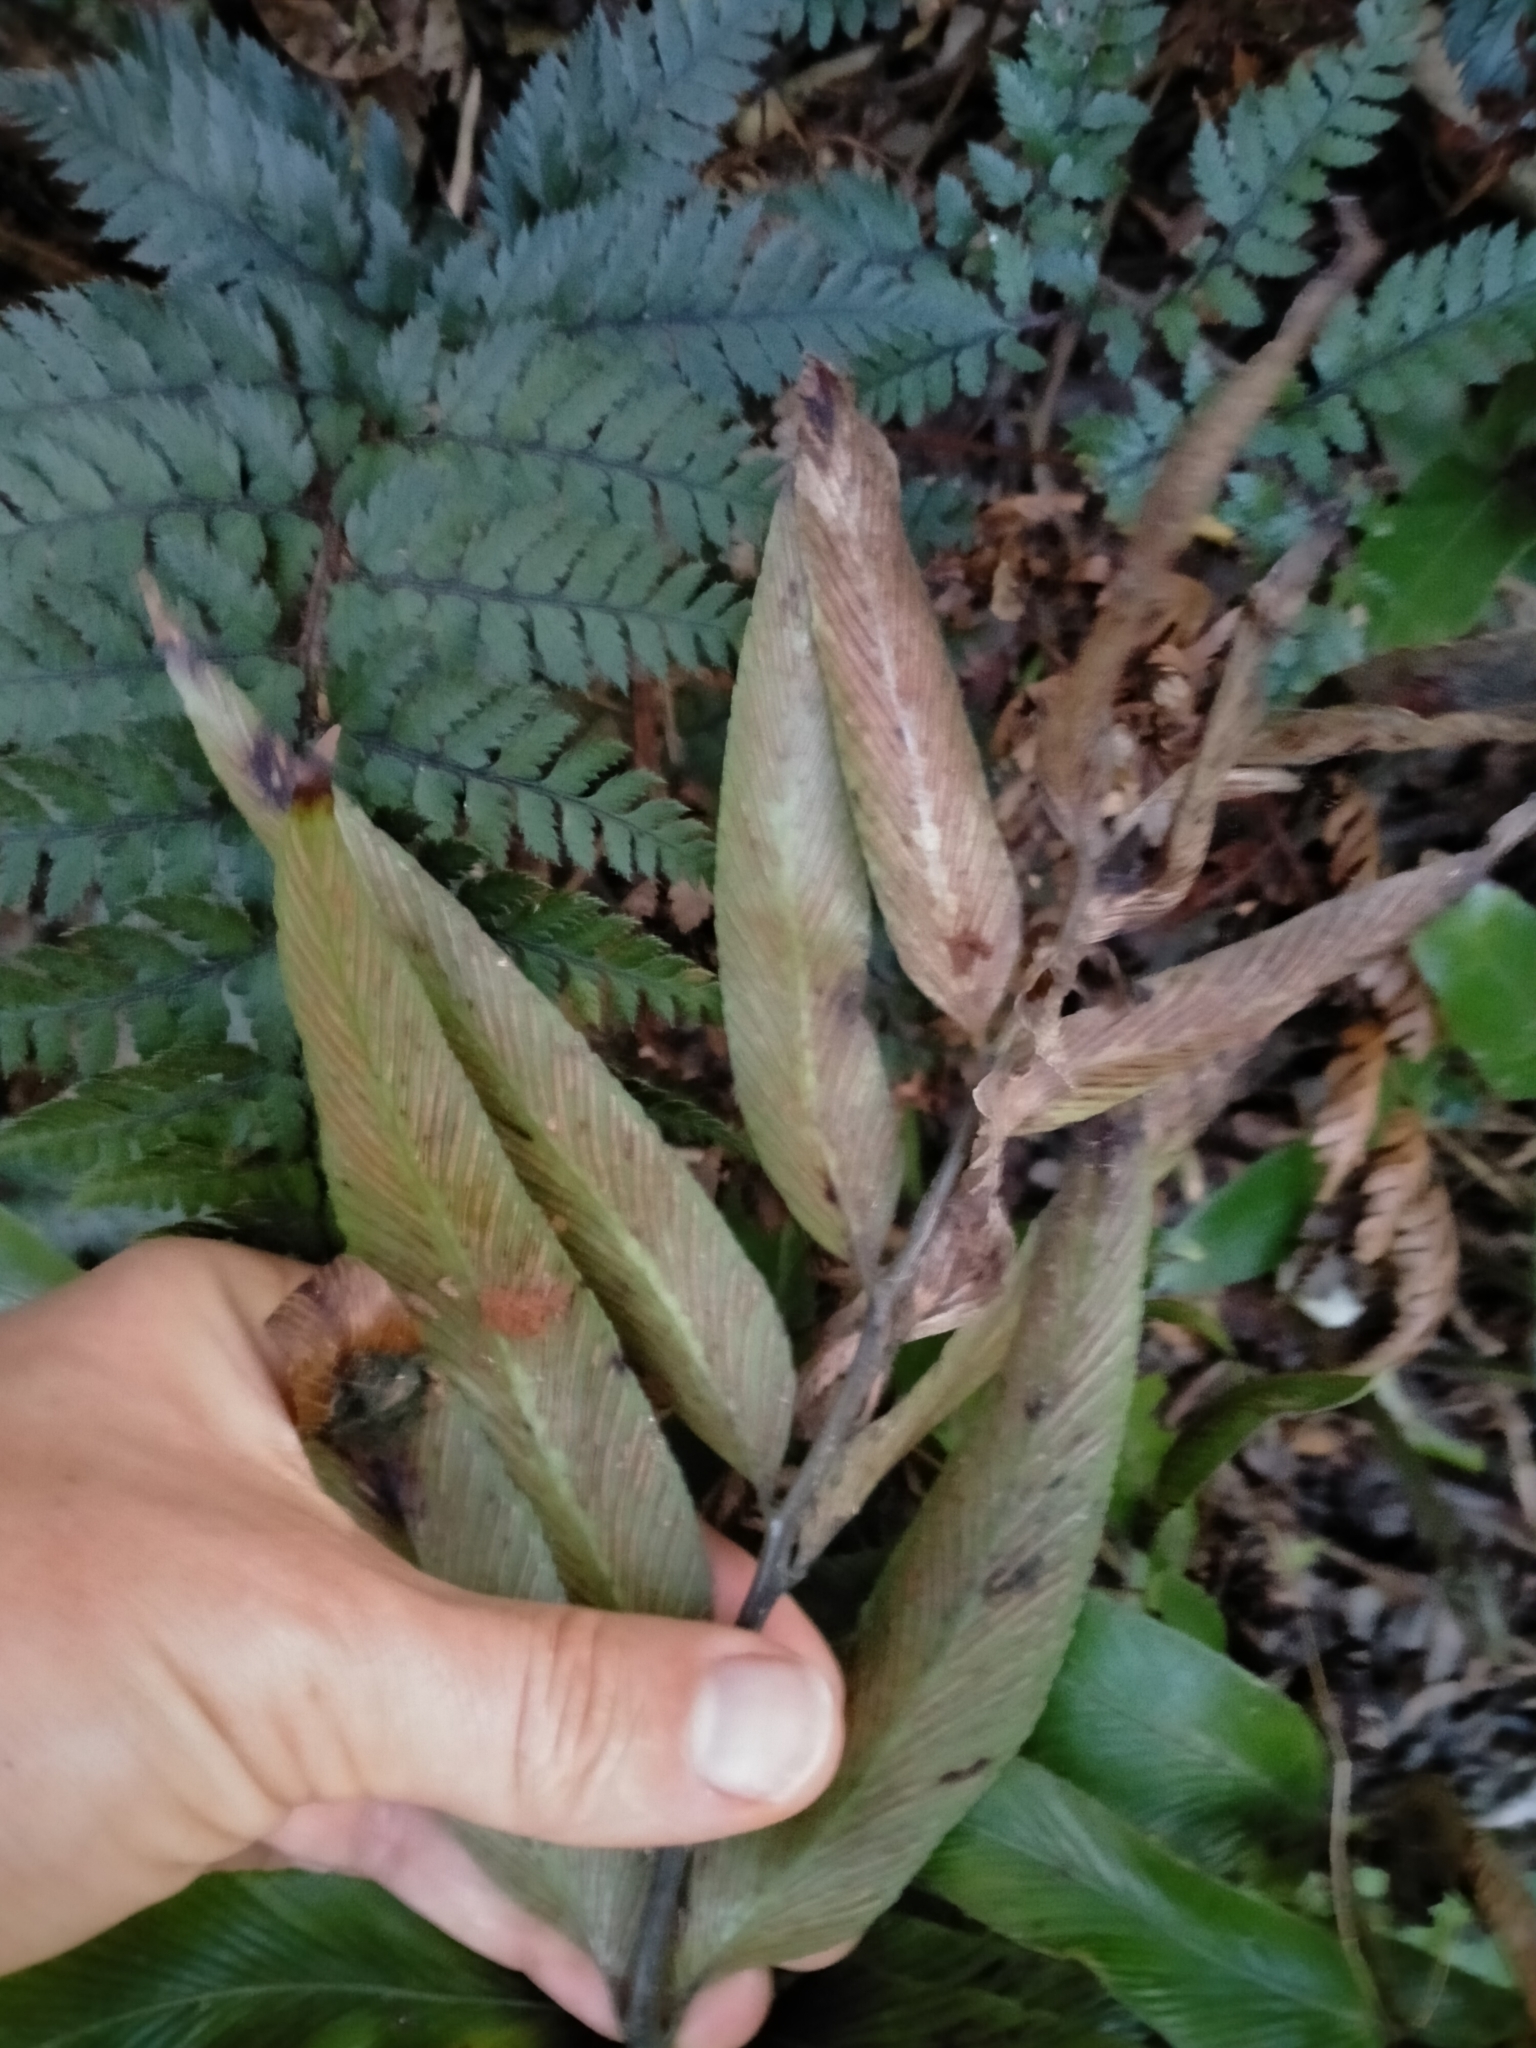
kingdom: Plantae
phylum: Tracheophyta
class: Polypodiopsida
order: Polypodiales
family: Aspleniaceae
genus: Asplenium
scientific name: Asplenium oblongifolium
